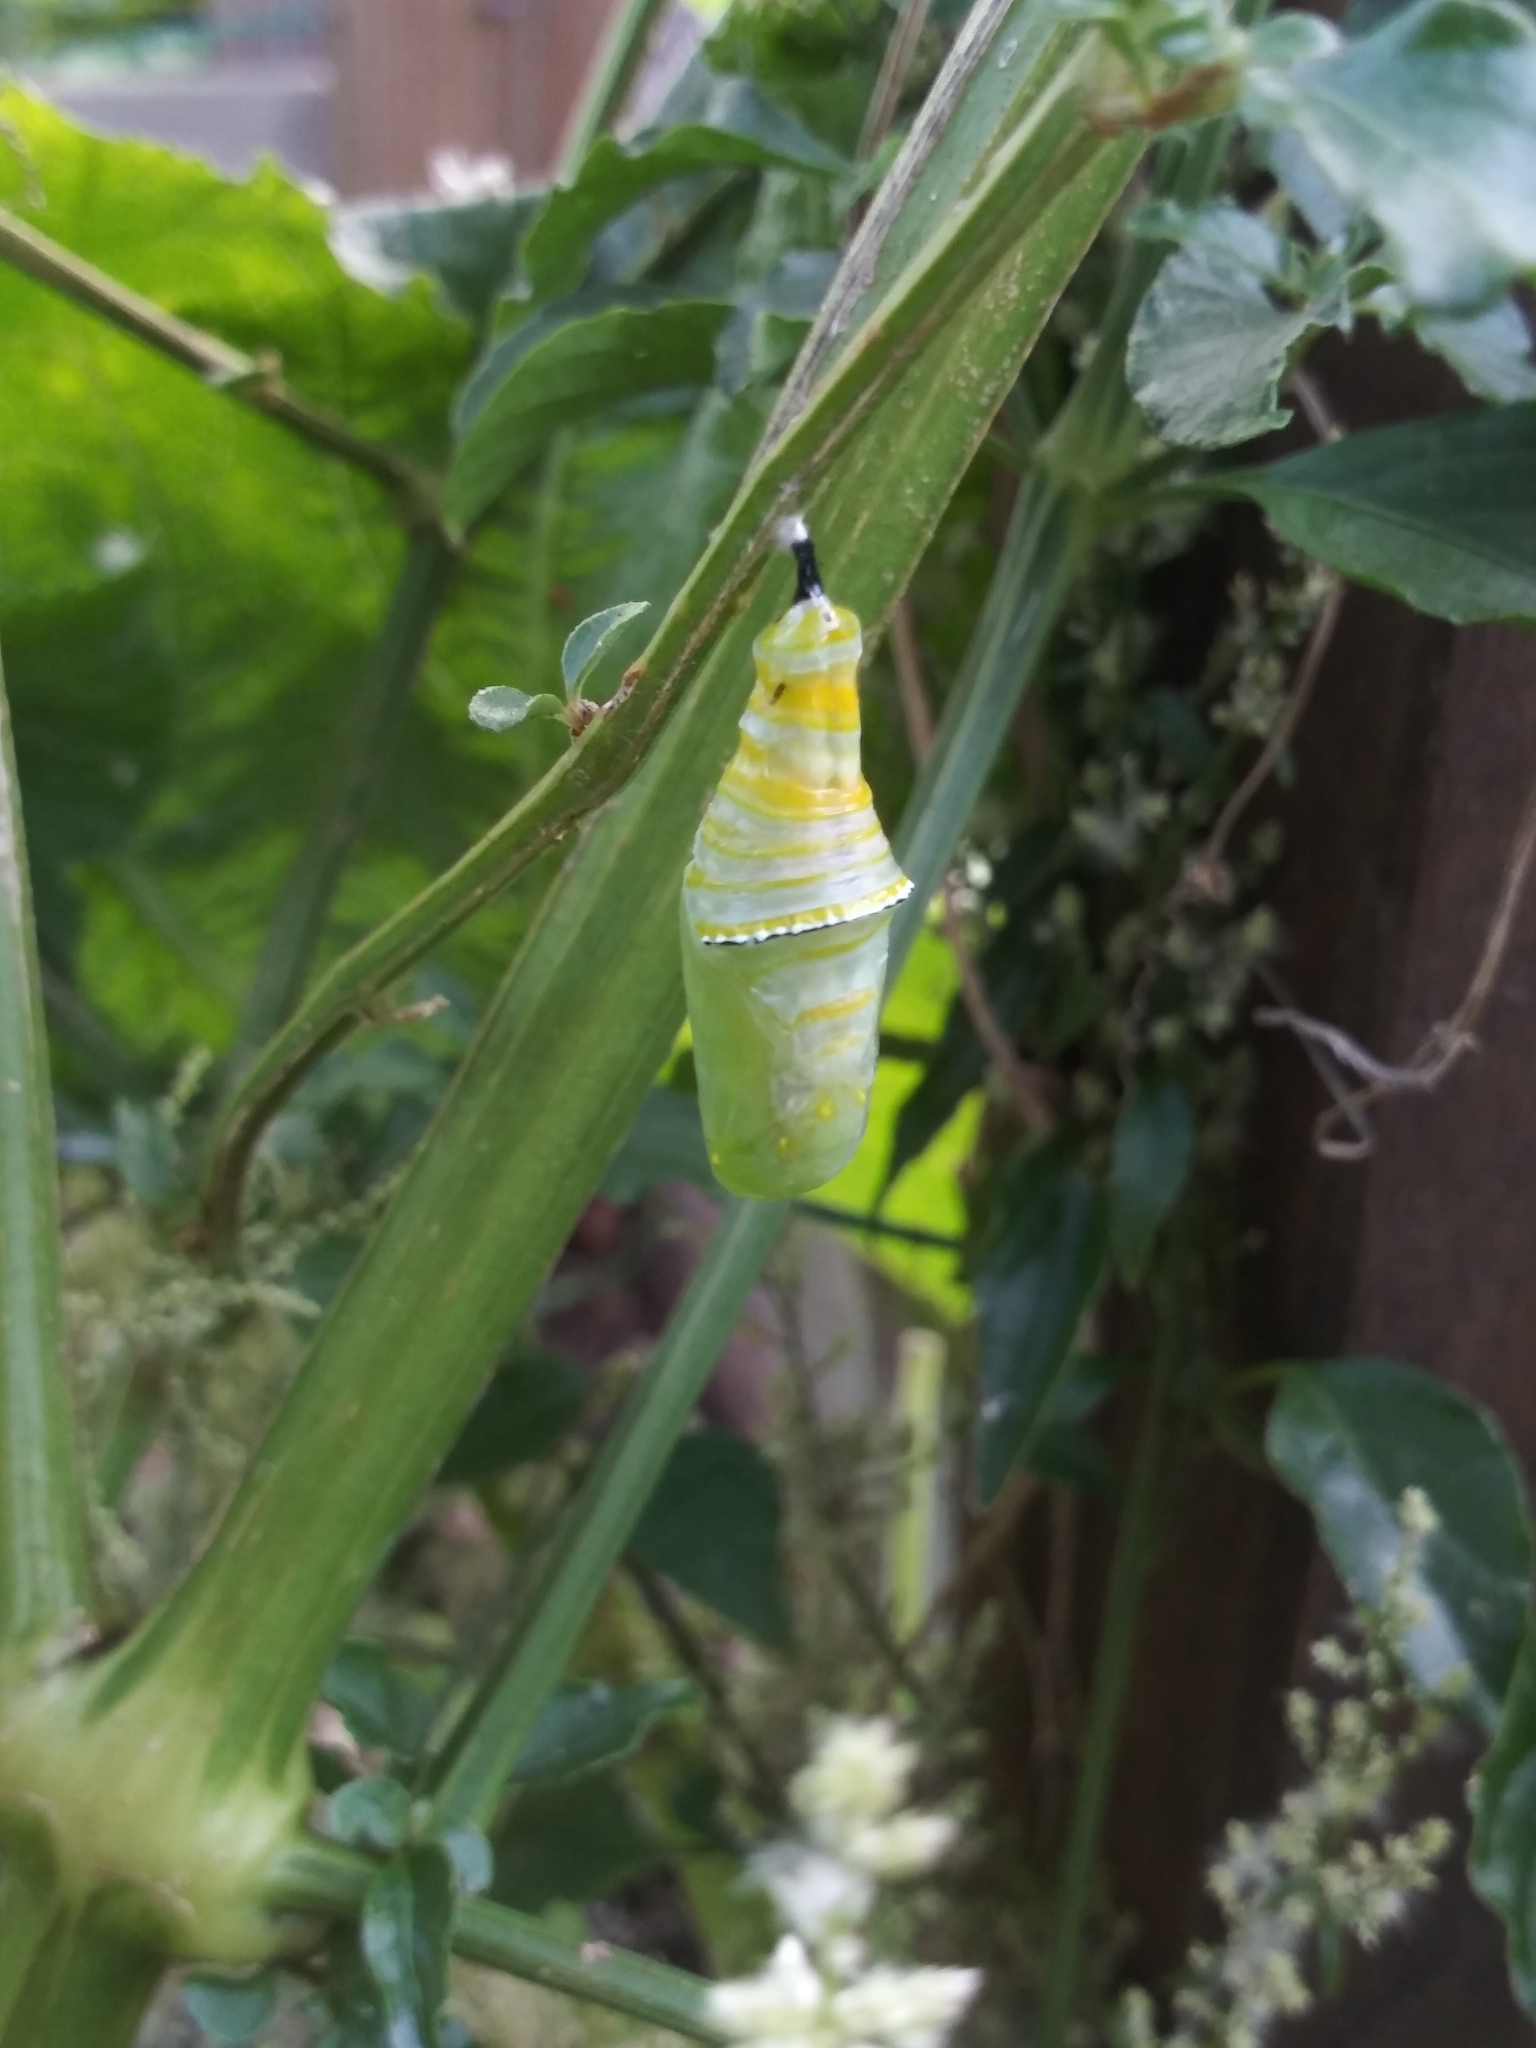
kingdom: Animalia
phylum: Arthropoda
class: Insecta
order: Lepidoptera
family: Nymphalidae
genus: Danaus
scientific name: Danaus plexippus
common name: Monarch
